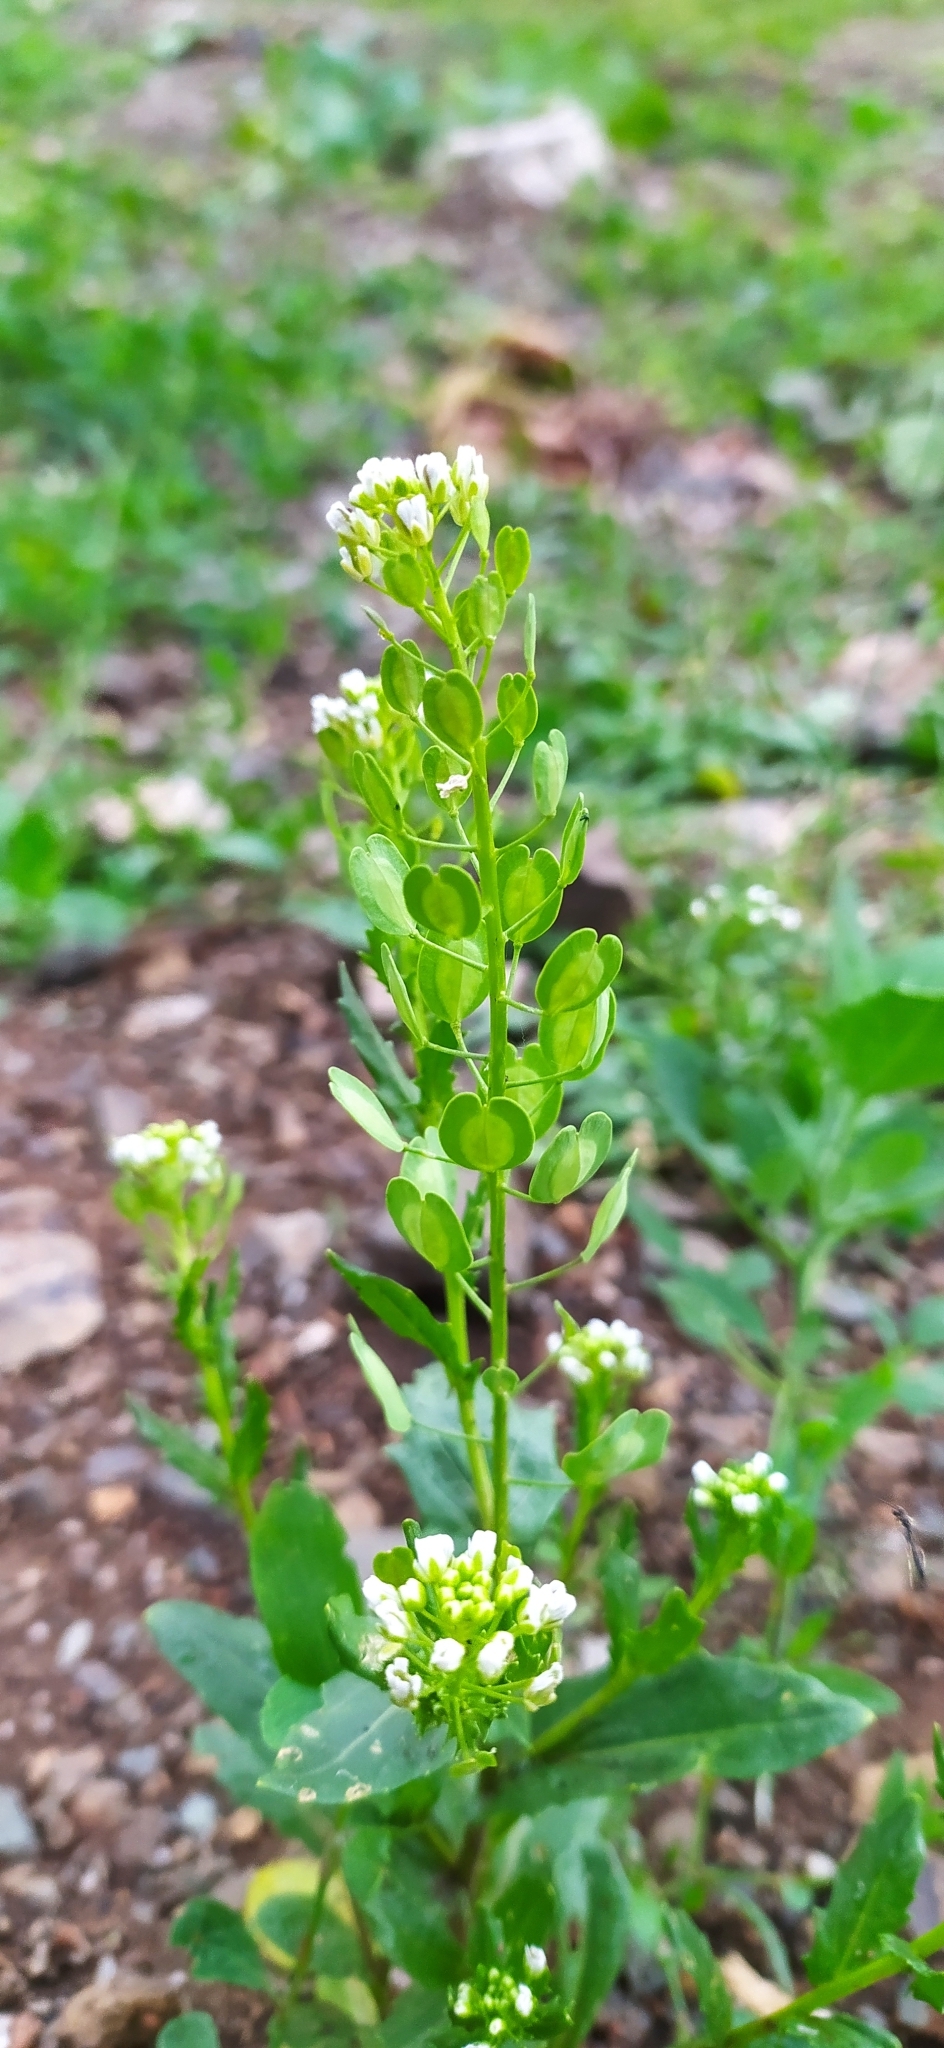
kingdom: Plantae
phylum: Tracheophyta
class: Magnoliopsida
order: Brassicales
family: Brassicaceae
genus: Thlaspi
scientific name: Thlaspi arvense
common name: Field pennycress
